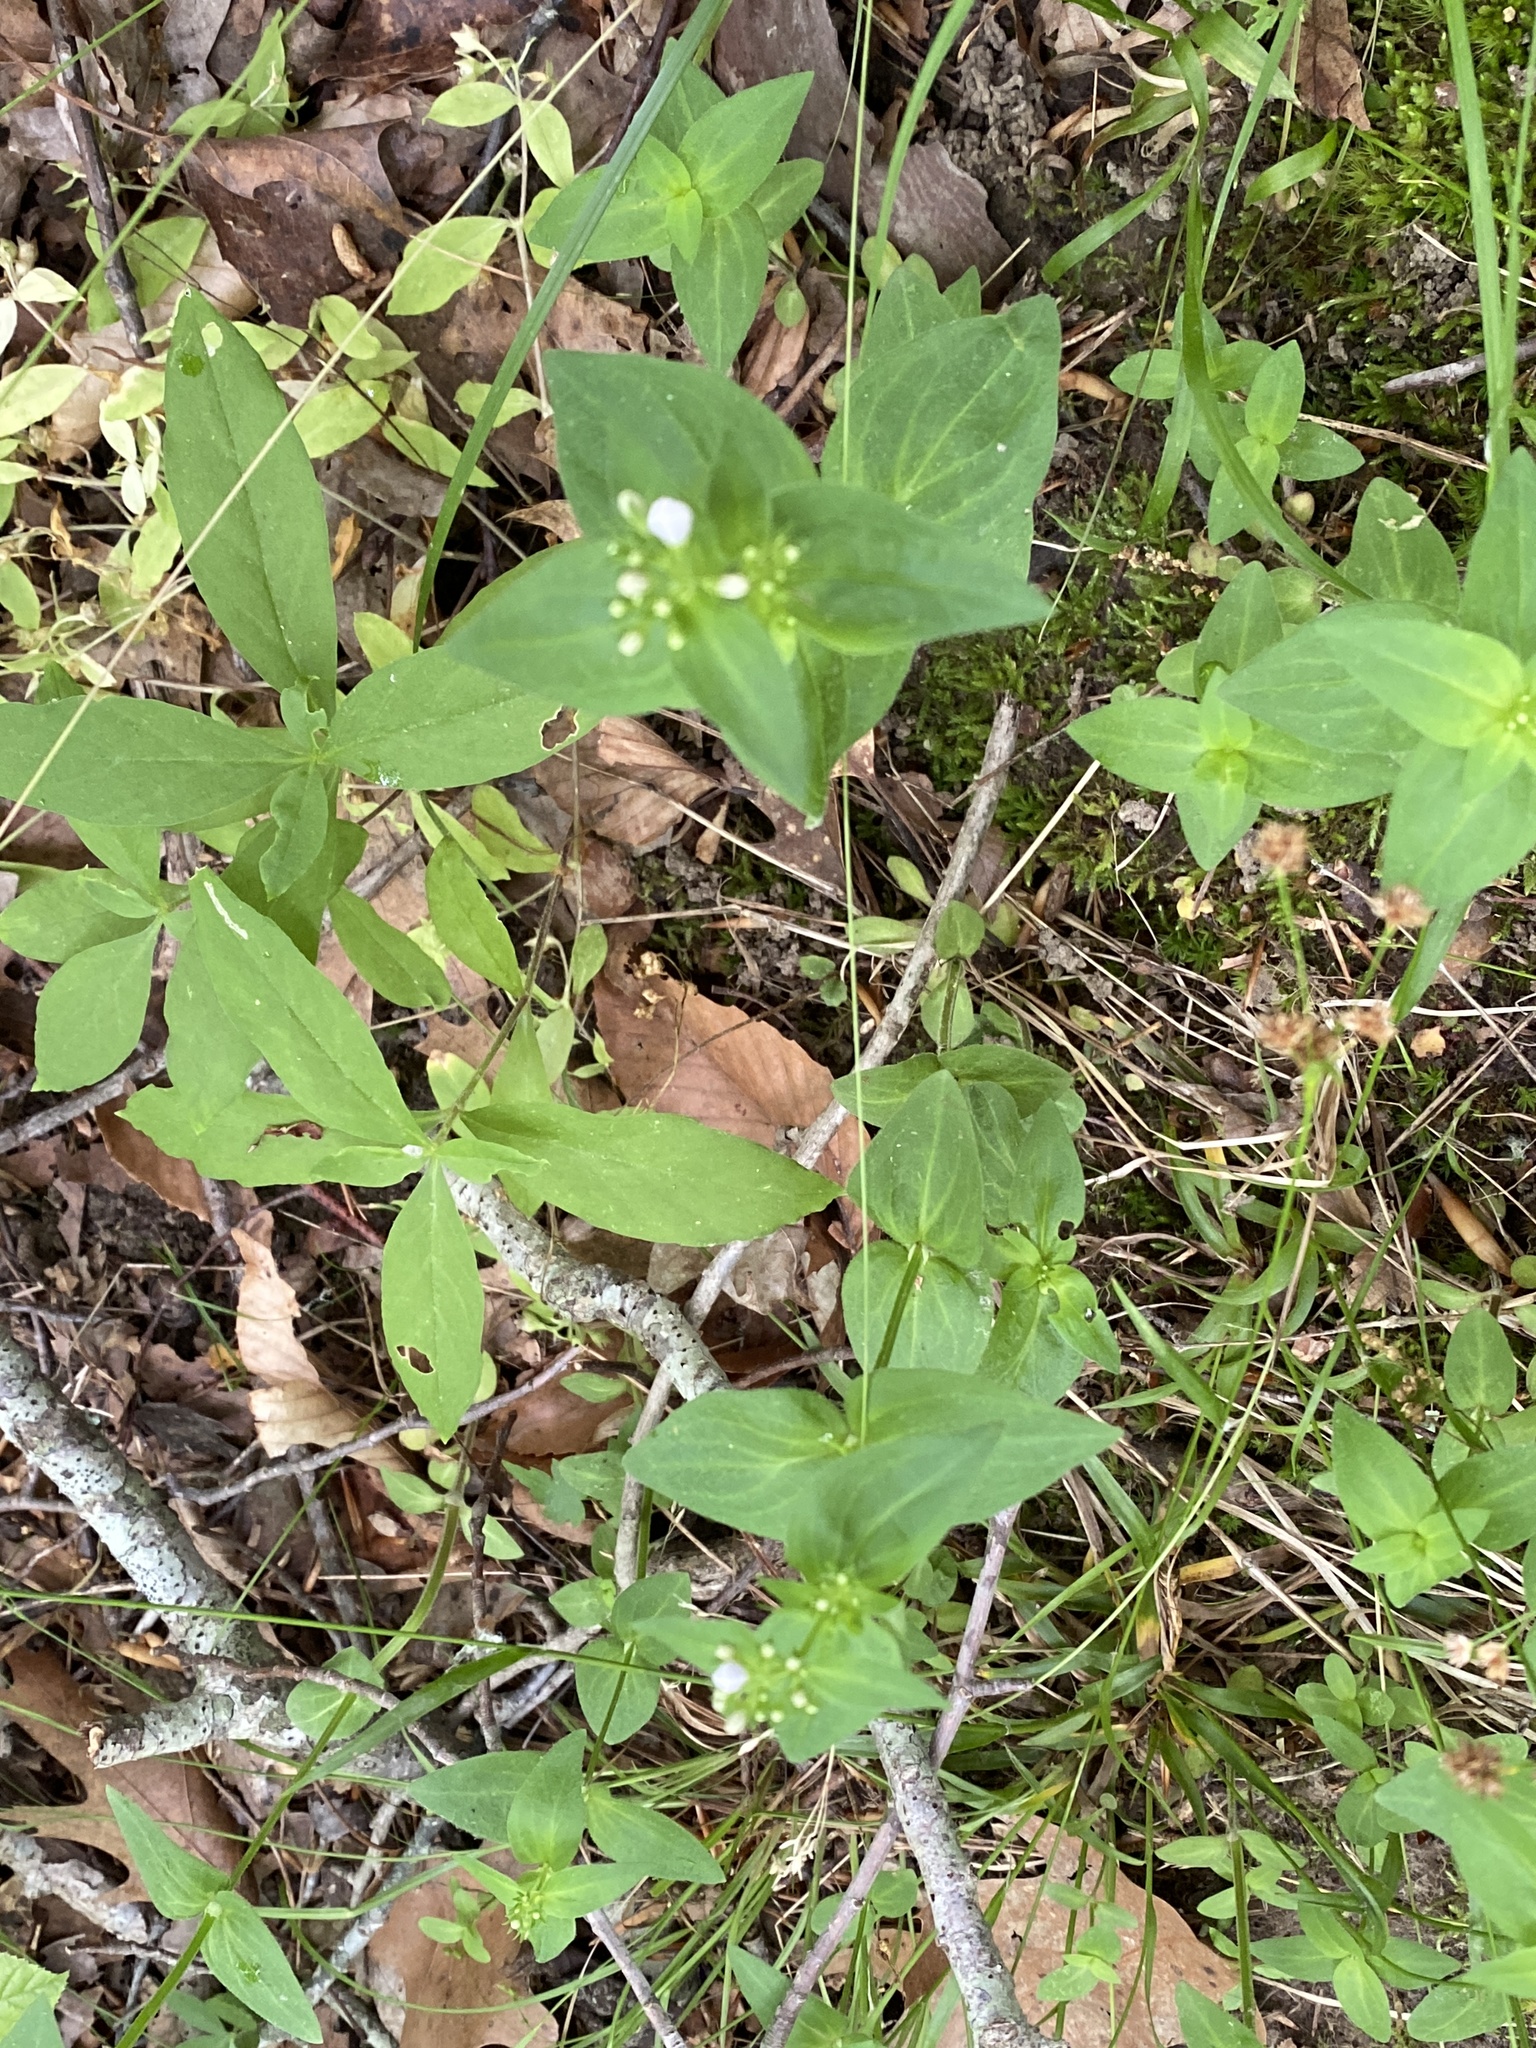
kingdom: Plantae
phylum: Tracheophyta
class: Magnoliopsida
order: Gentianales
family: Rubiaceae
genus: Houstonia
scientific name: Houstonia purpurea
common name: Summer bluet
